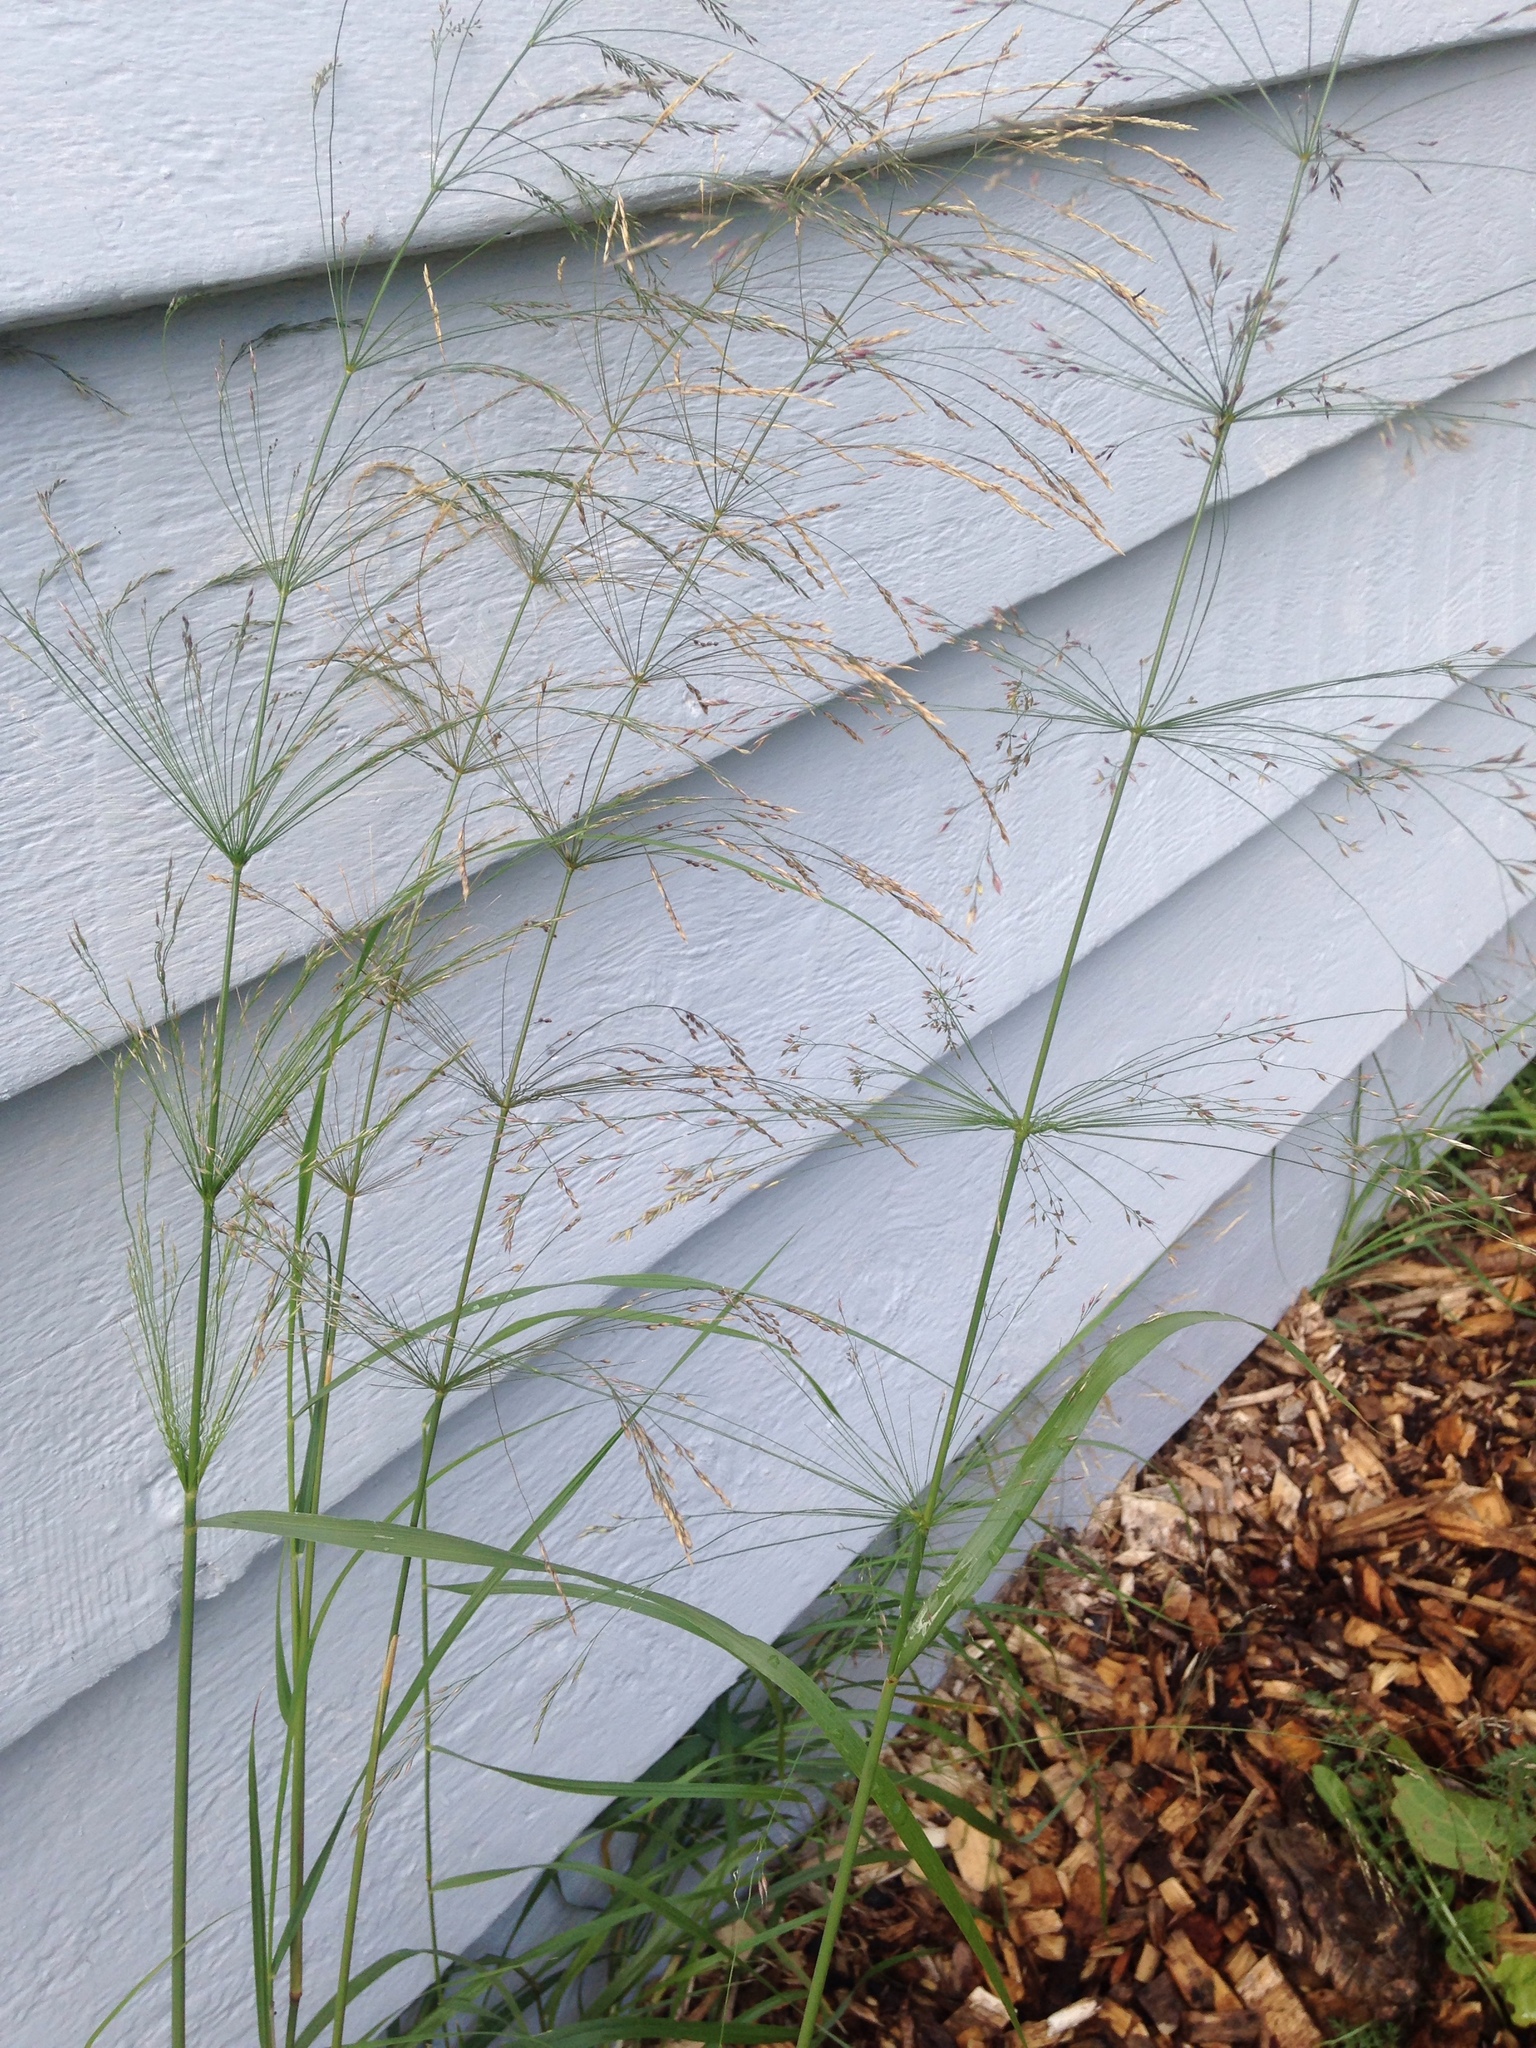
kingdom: Plantae
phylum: Tracheophyta
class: Liliopsida
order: Poales
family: Poaceae
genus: Oloptum
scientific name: Oloptum miliaceum
